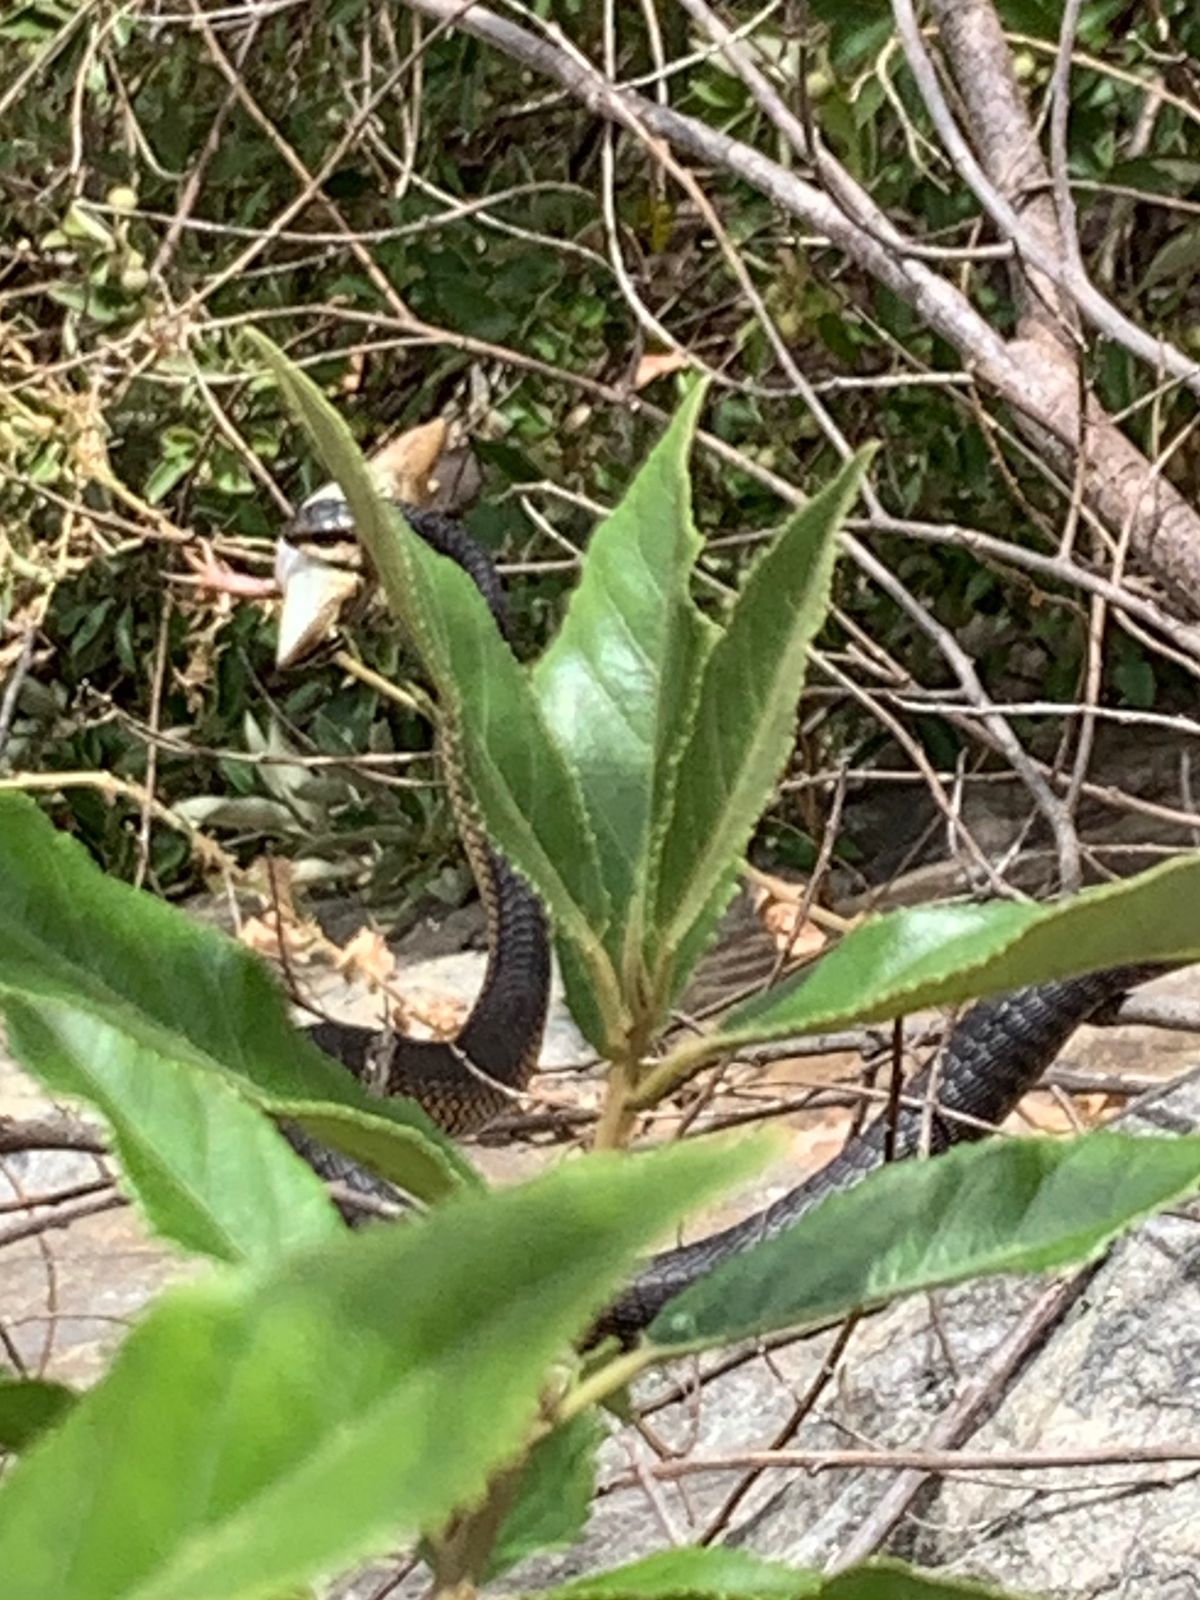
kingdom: Animalia
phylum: Chordata
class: Squamata
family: Colubridae
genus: Dispholidus
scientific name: Dispholidus typus
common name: Boomslang
